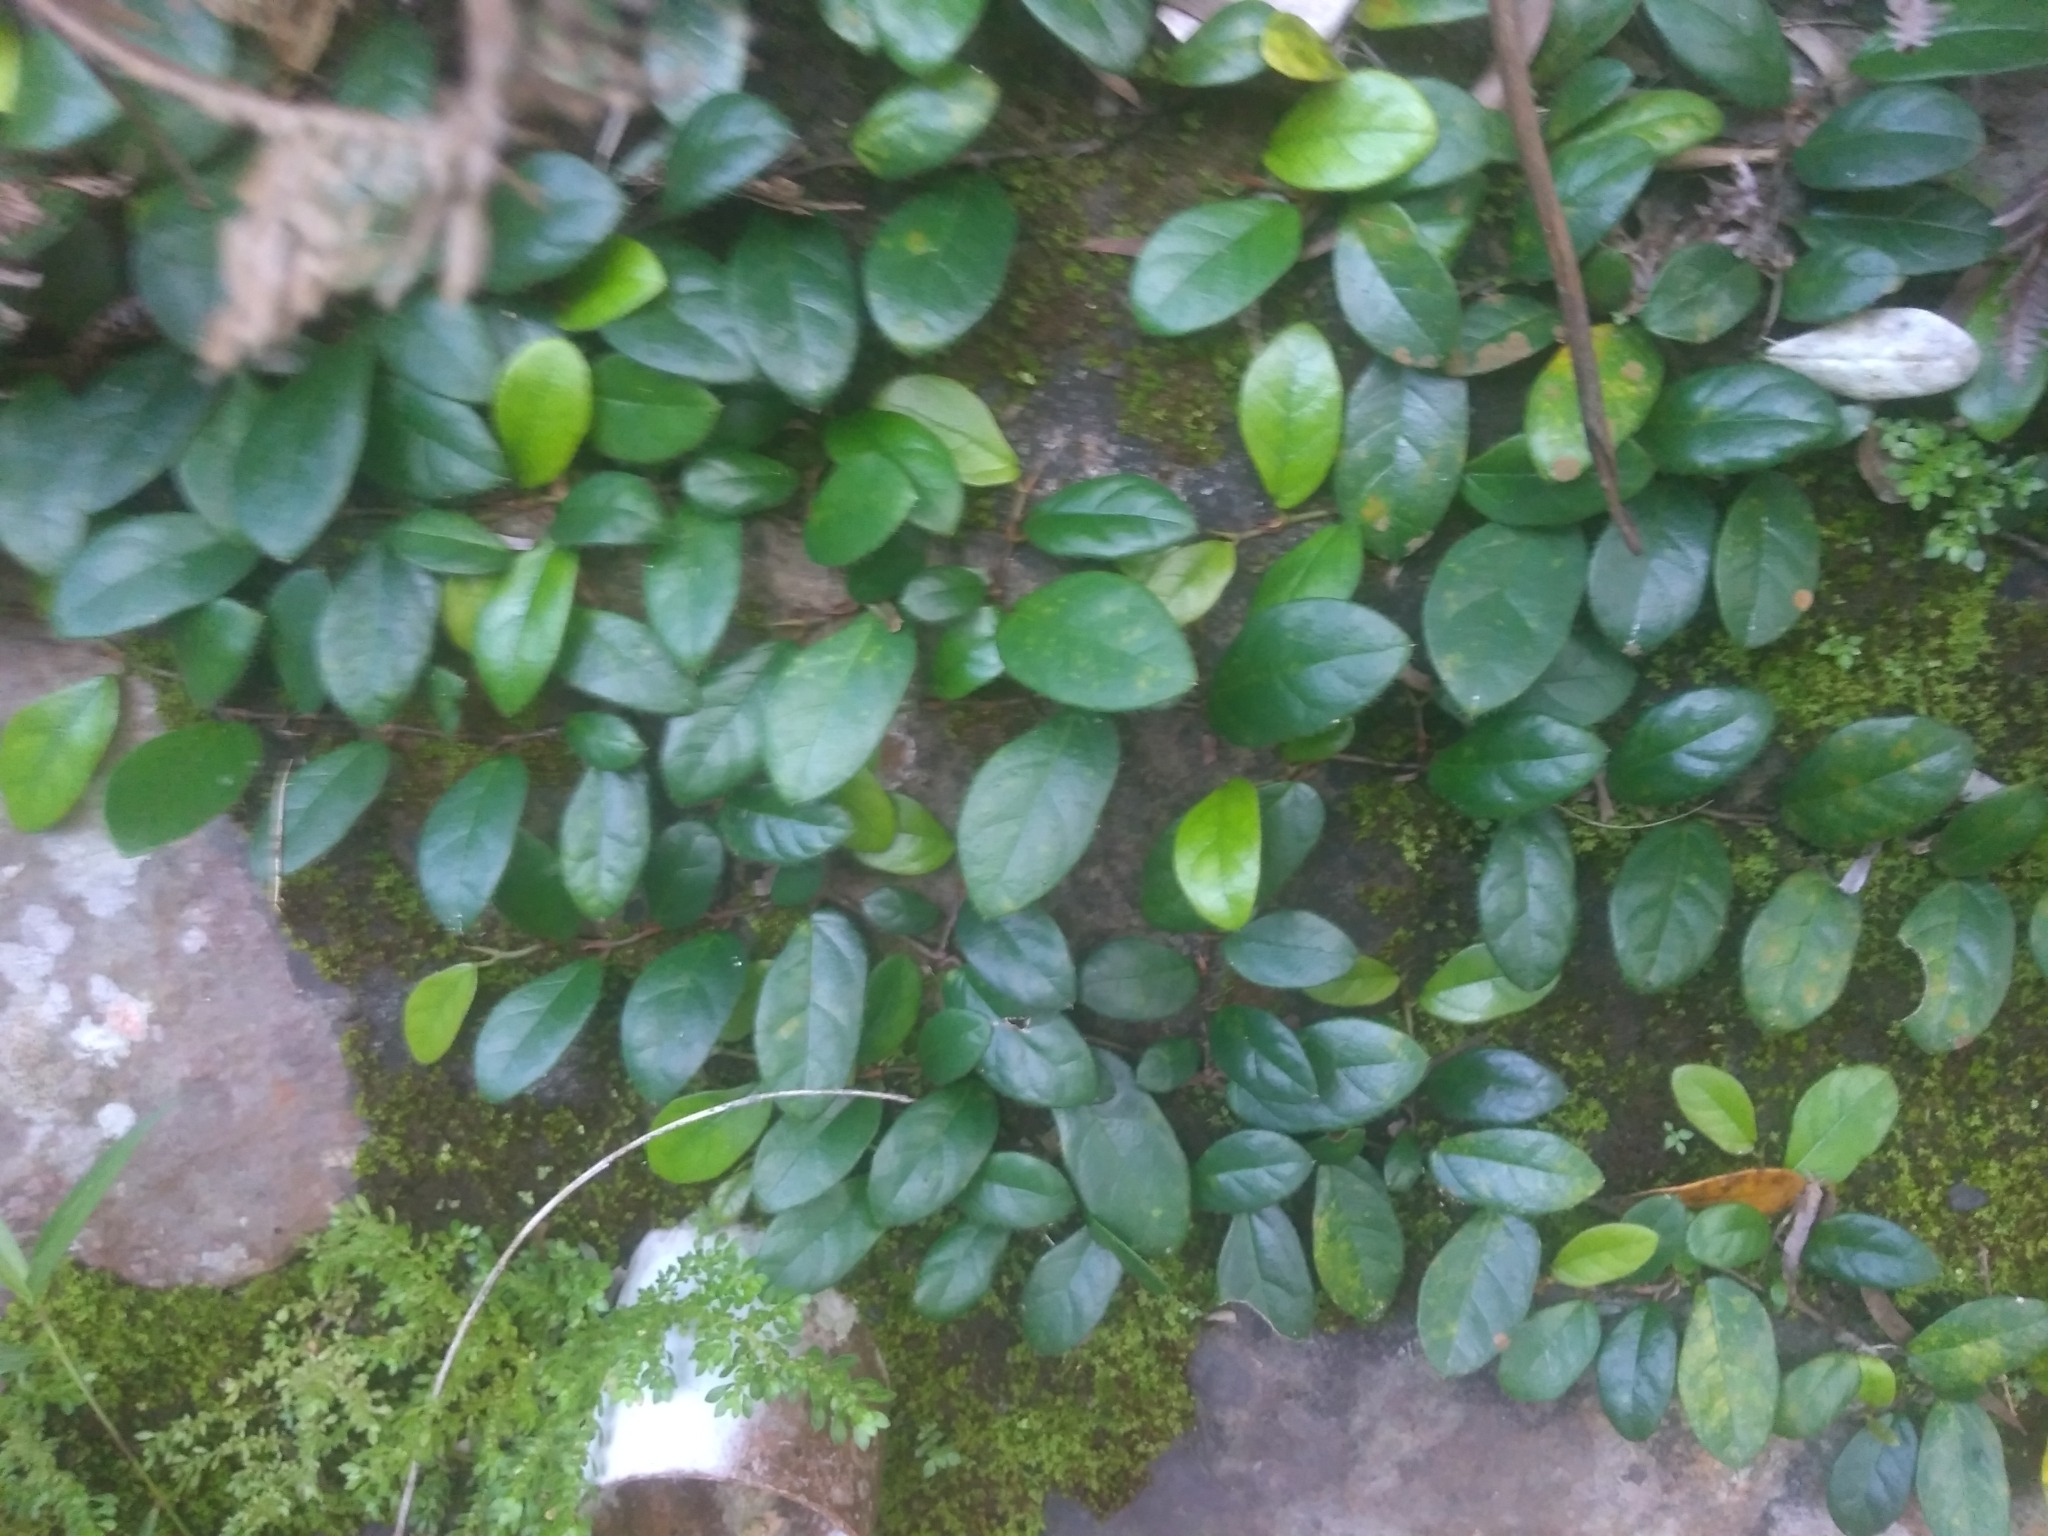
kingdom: Plantae
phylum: Tracheophyta
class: Magnoliopsida
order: Rosales
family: Moraceae
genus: Ficus
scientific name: Ficus punctata
